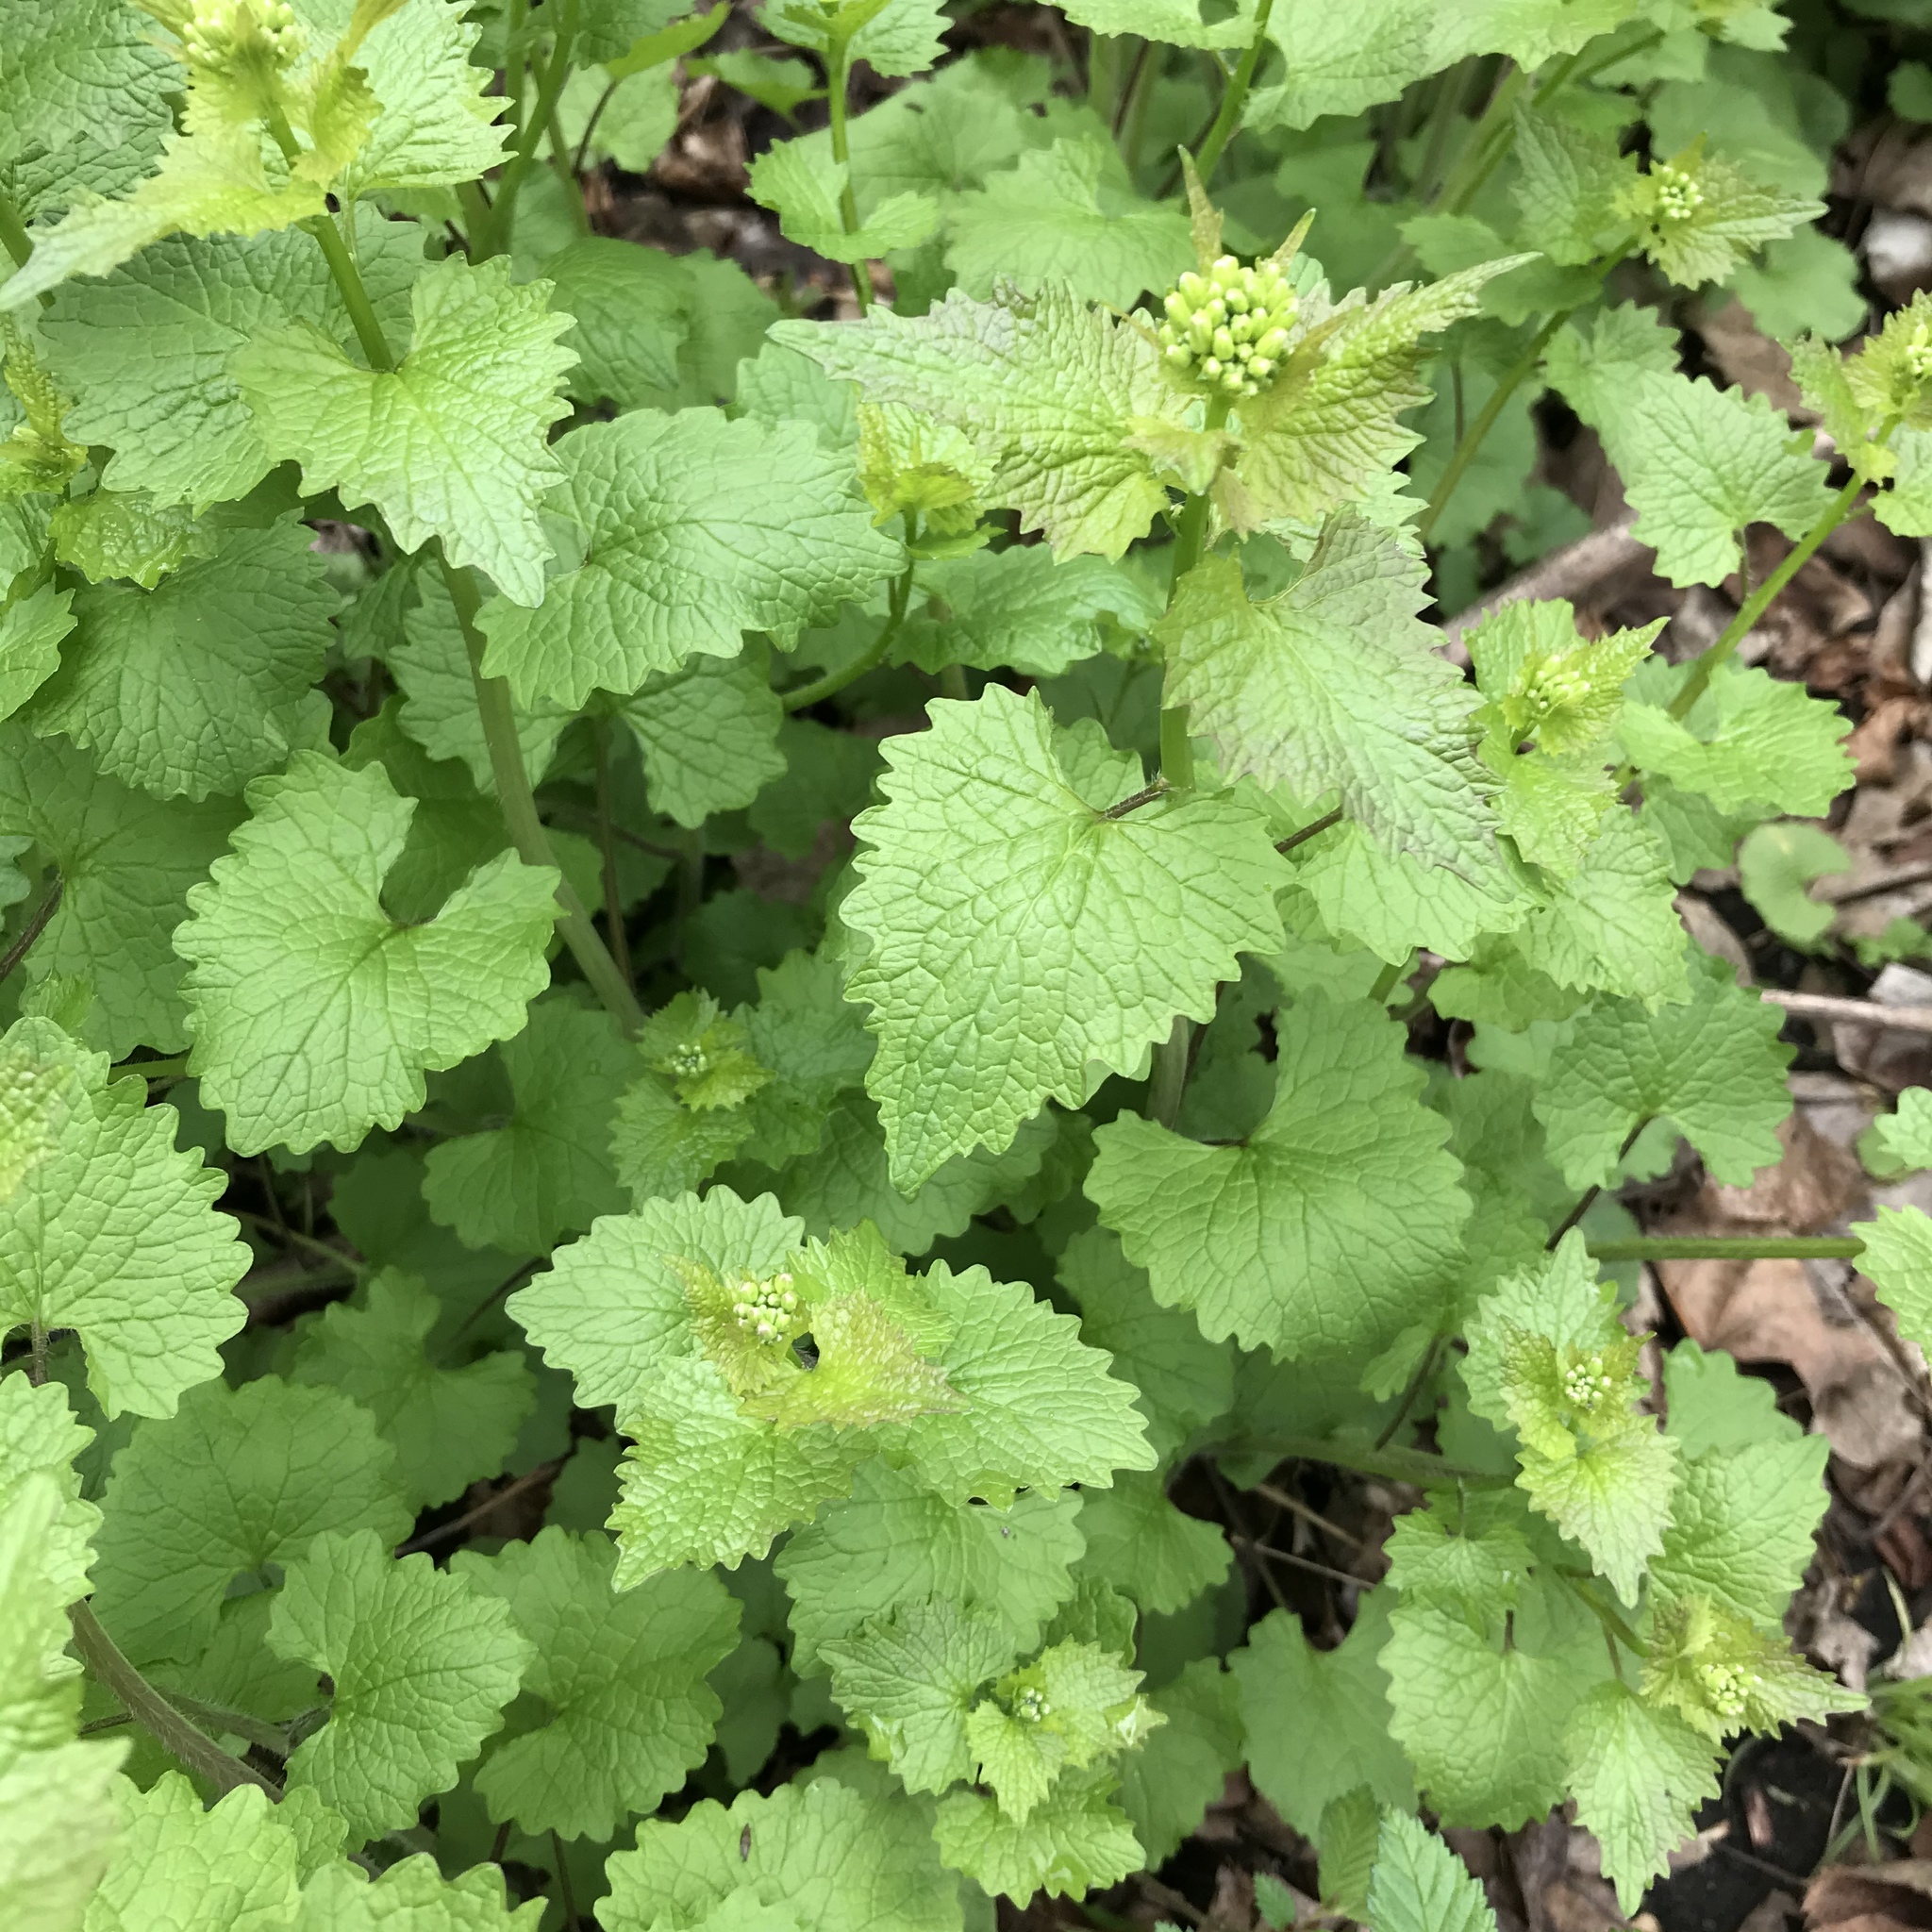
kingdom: Plantae
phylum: Tracheophyta
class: Magnoliopsida
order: Brassicales
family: Brassicaceae
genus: Alliaria
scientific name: Alliaria petiolata
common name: Garlic mustard
